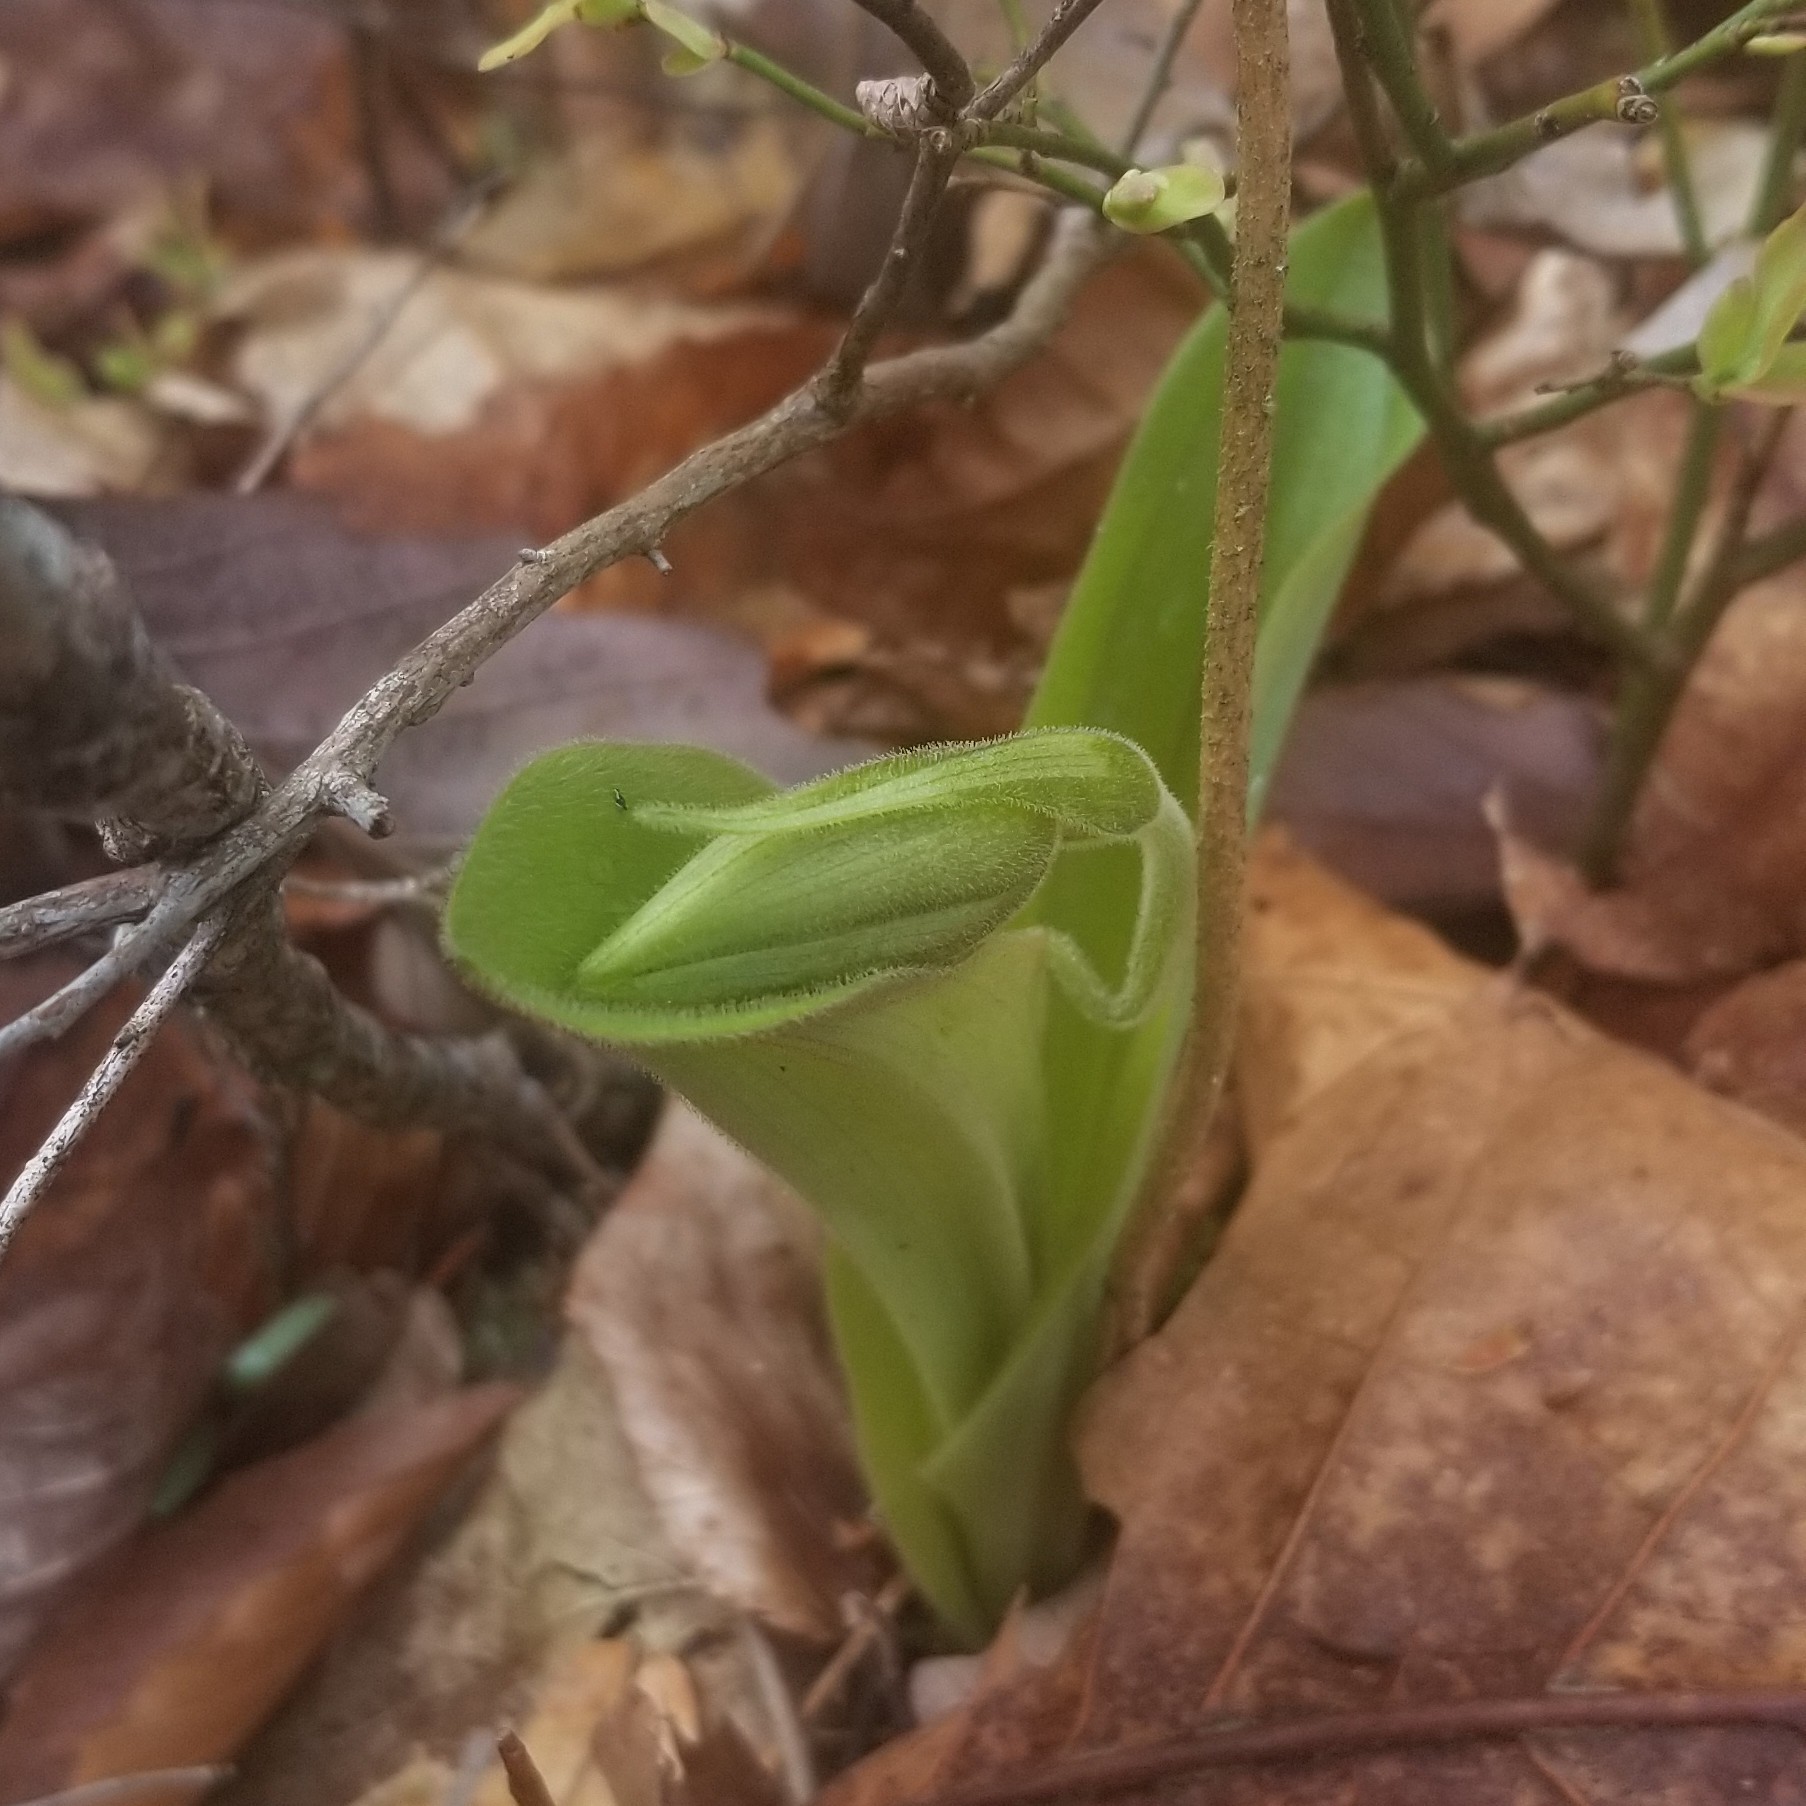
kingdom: Plantae
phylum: Tracheophyta
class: Liliopsida
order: Asparagales
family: Orchidaceae
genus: Cypripedium
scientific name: Cypripedium acaule
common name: Pink lady's-slipper
